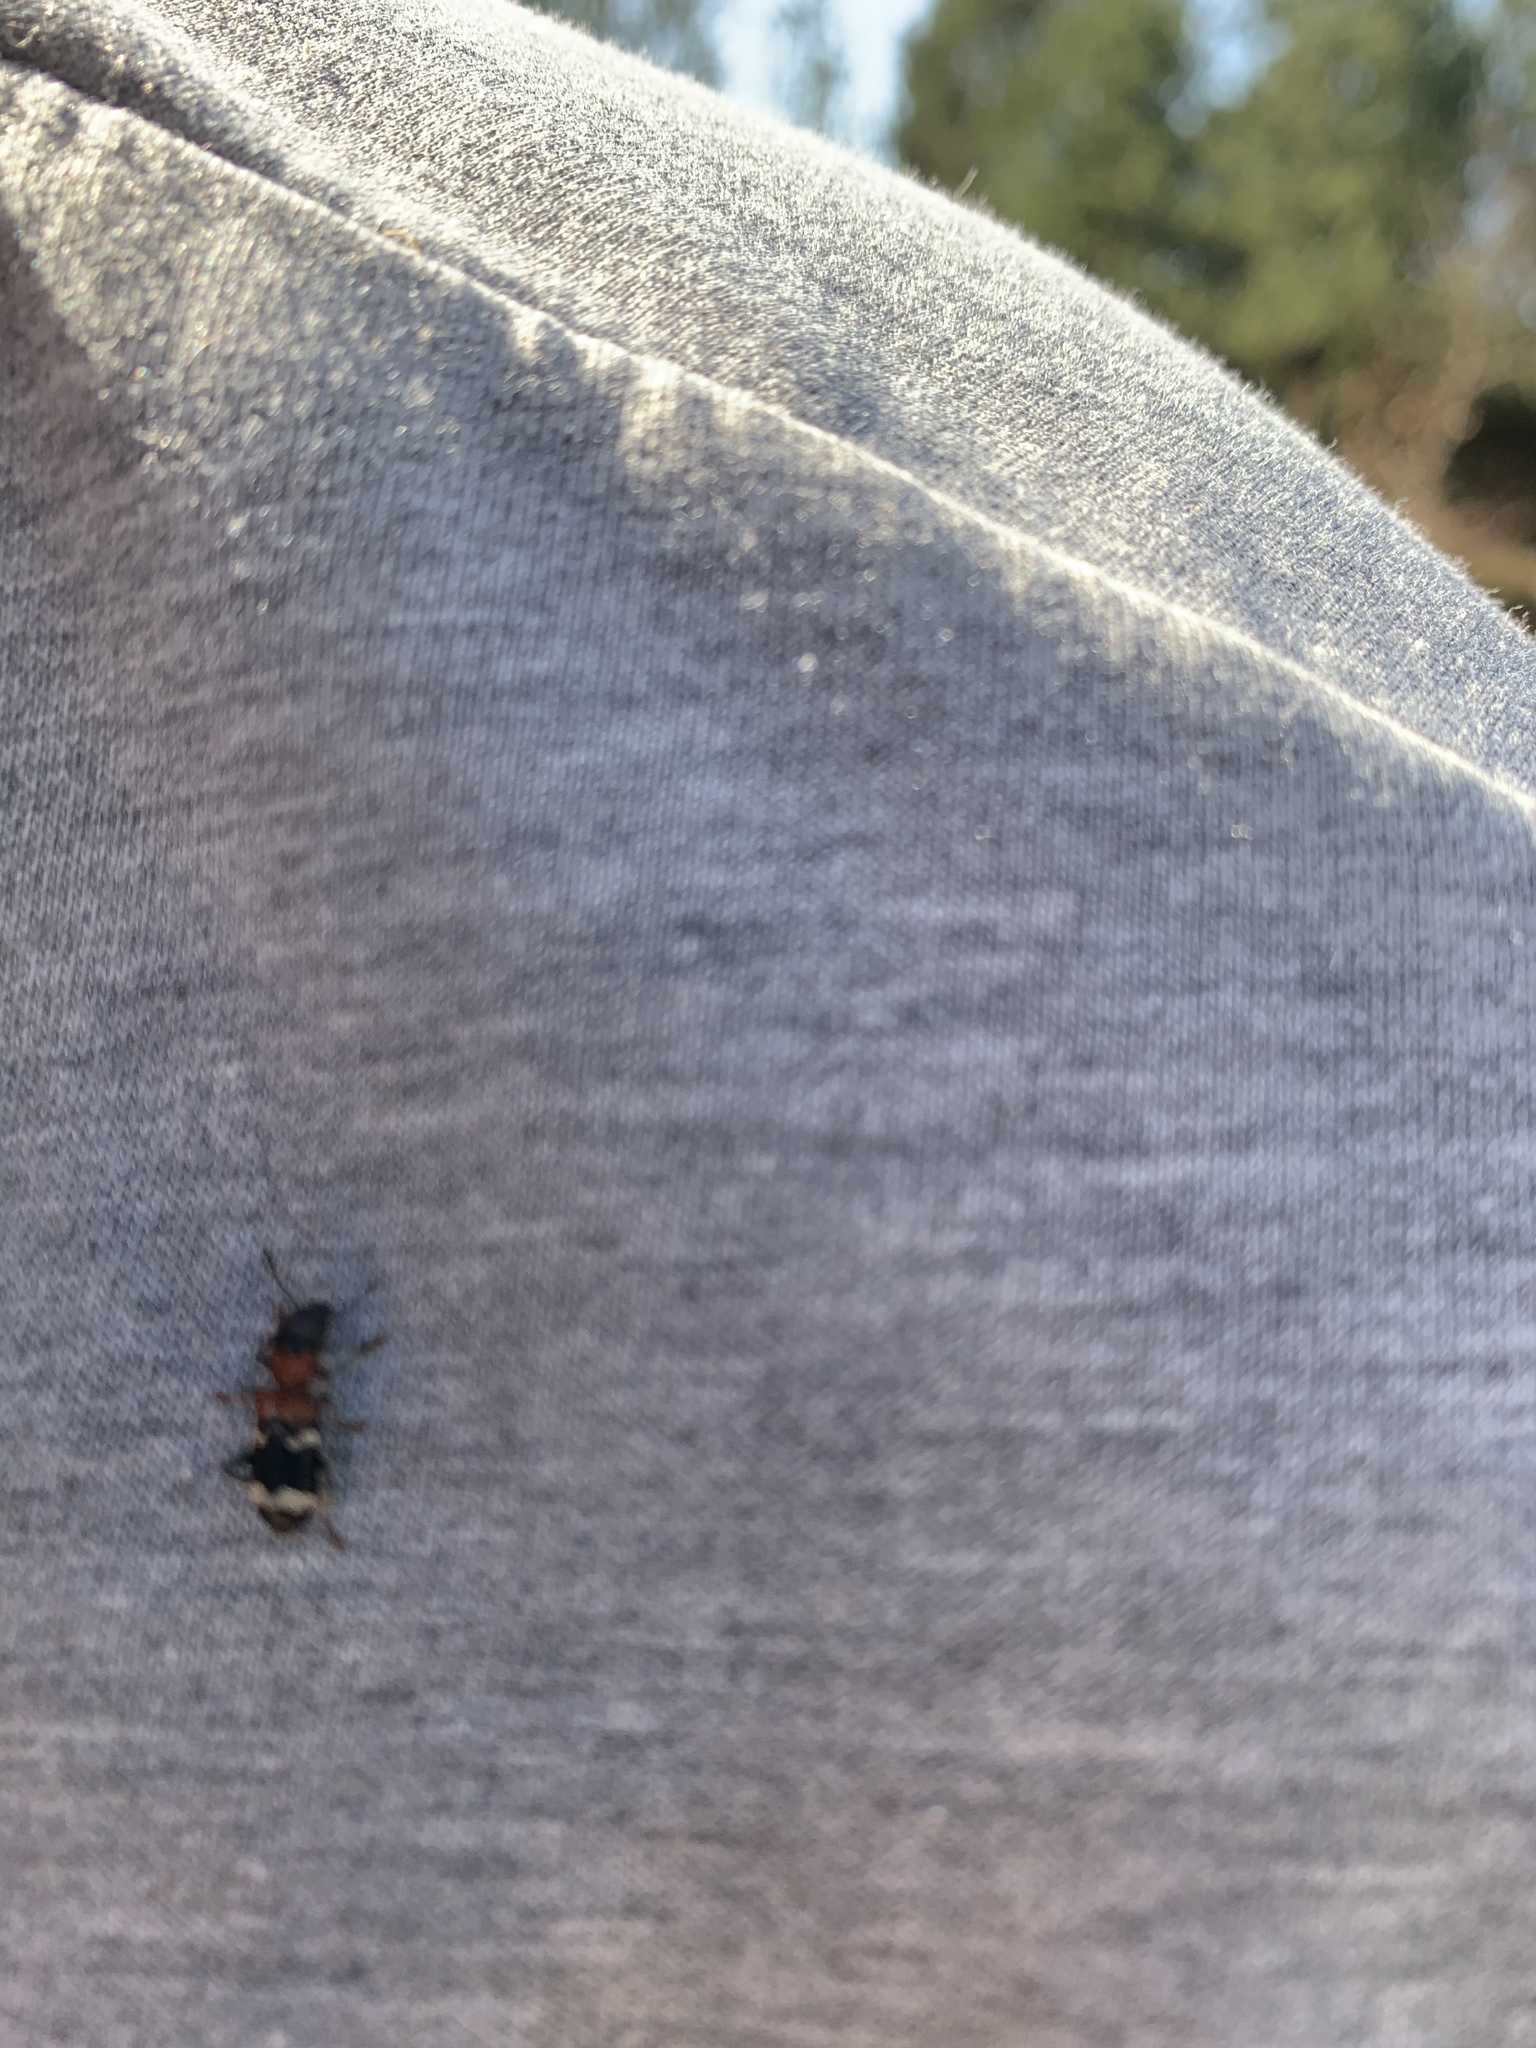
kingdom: Animalia
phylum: Arthropoda
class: Insecta
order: Coleoptera
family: Cleridae
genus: Thanasimus
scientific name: Thanasimus formicarius
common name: Ant beetle
